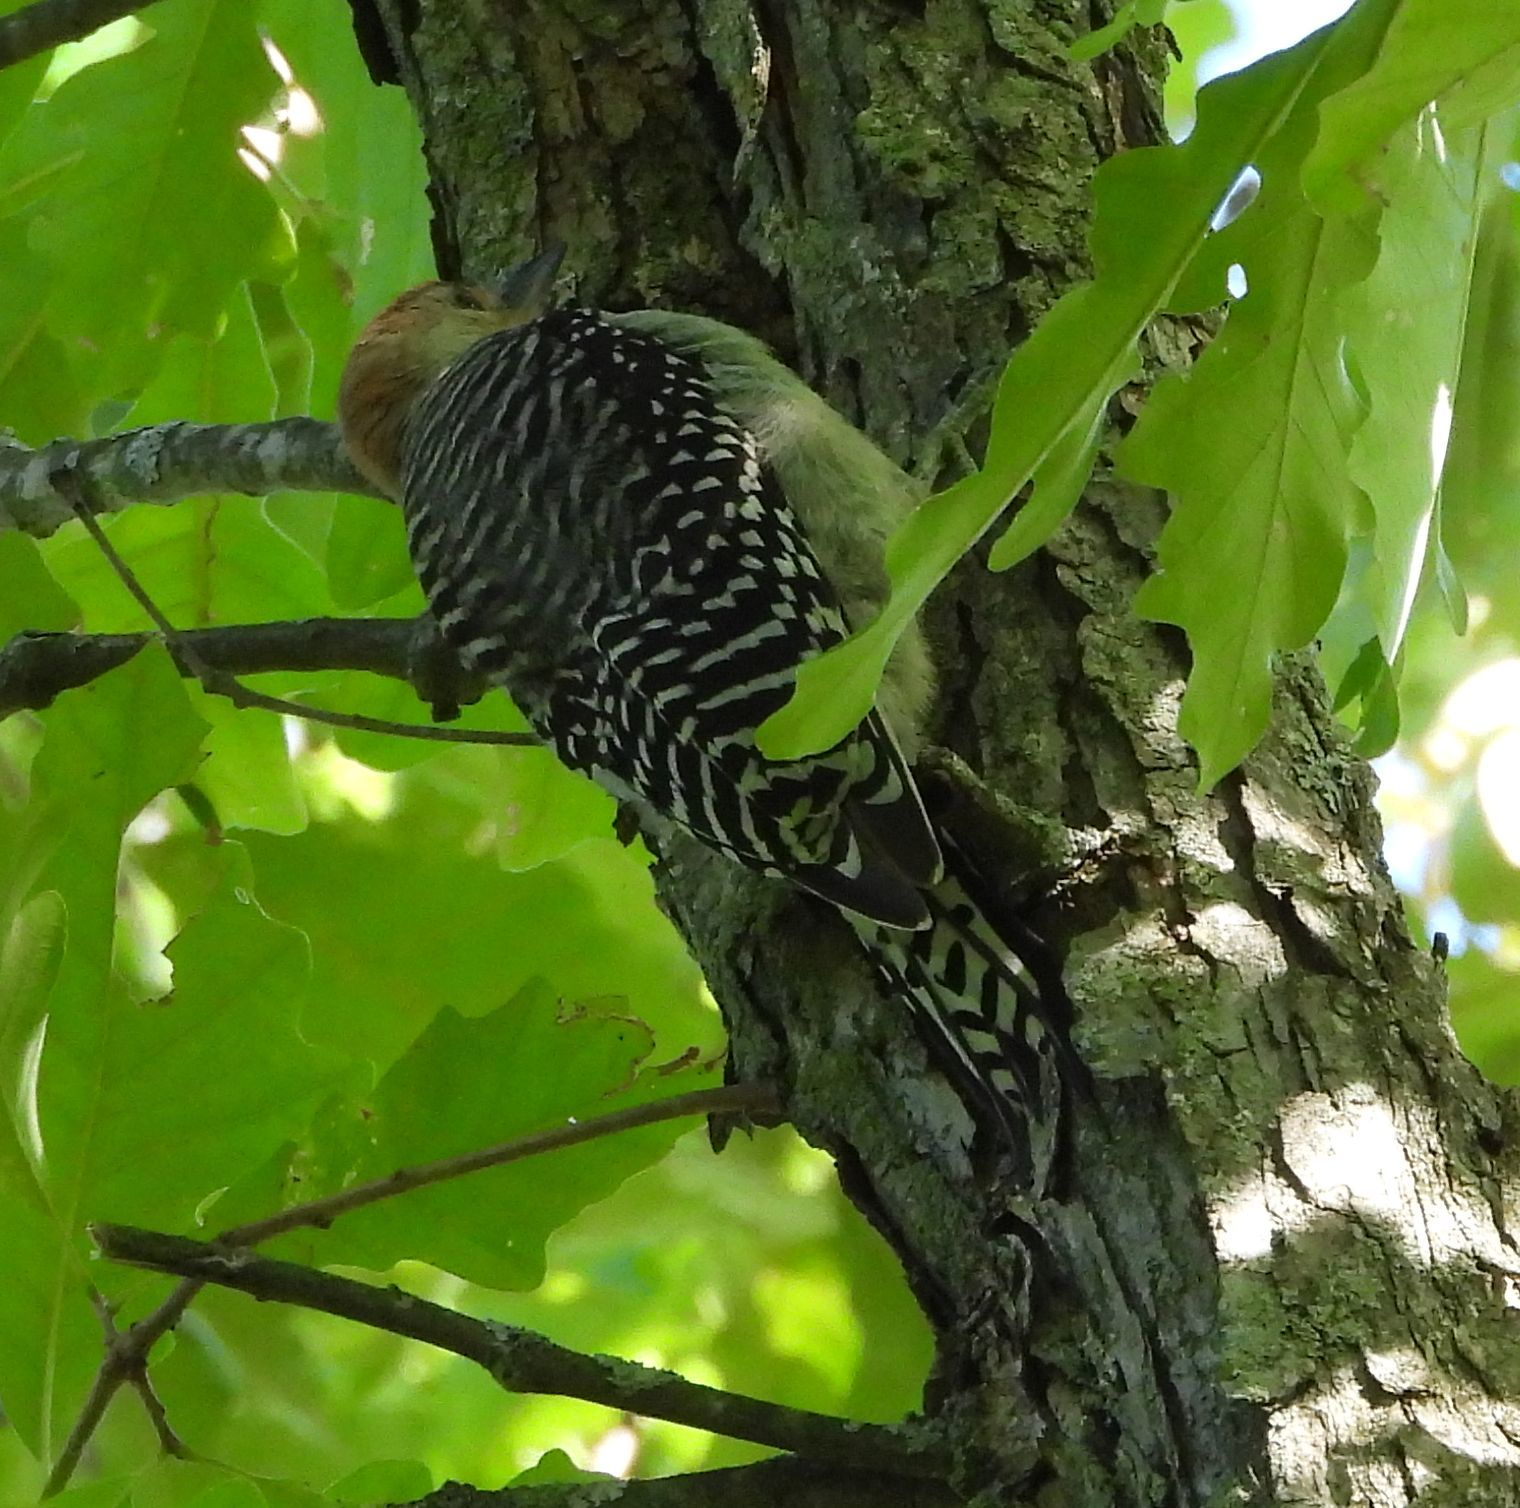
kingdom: Animalia
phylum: Chordata
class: Aves
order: Piciformes
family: Picidae
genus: Melanerpes
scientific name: Melanerpes carolinus
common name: Red-bellied woodpecker
